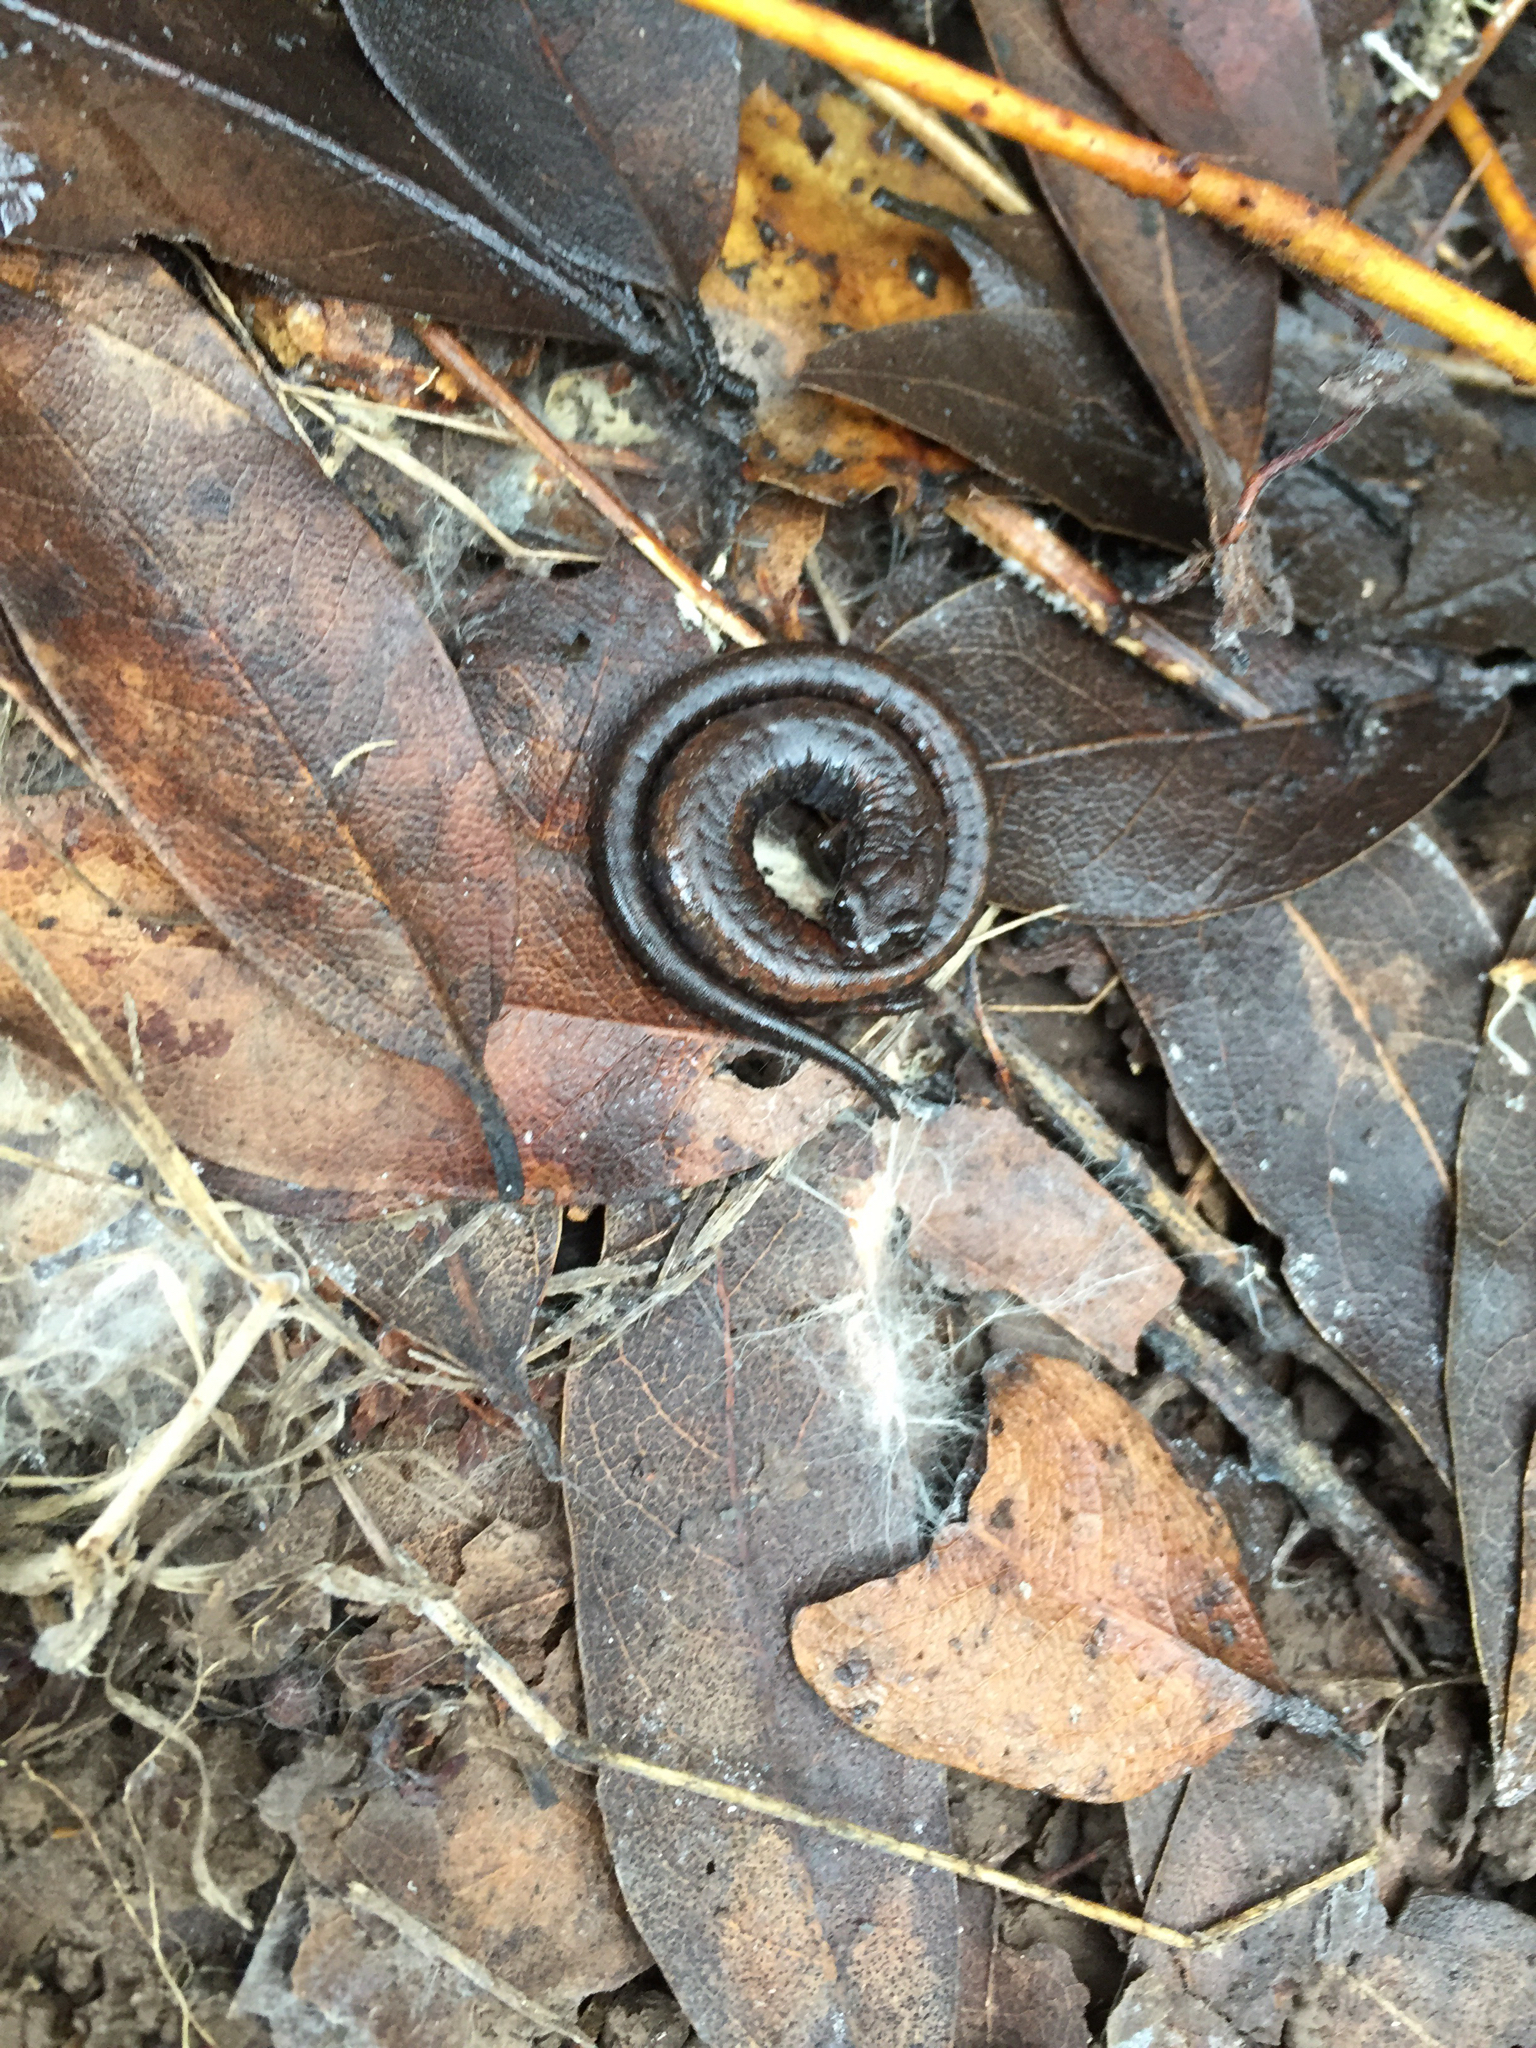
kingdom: Animalia
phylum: Chordata
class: Amphibia
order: Caudata
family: Plethodontidae
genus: Batrachoseps
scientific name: Batrachoseps attenuatus
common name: California slender salamander
